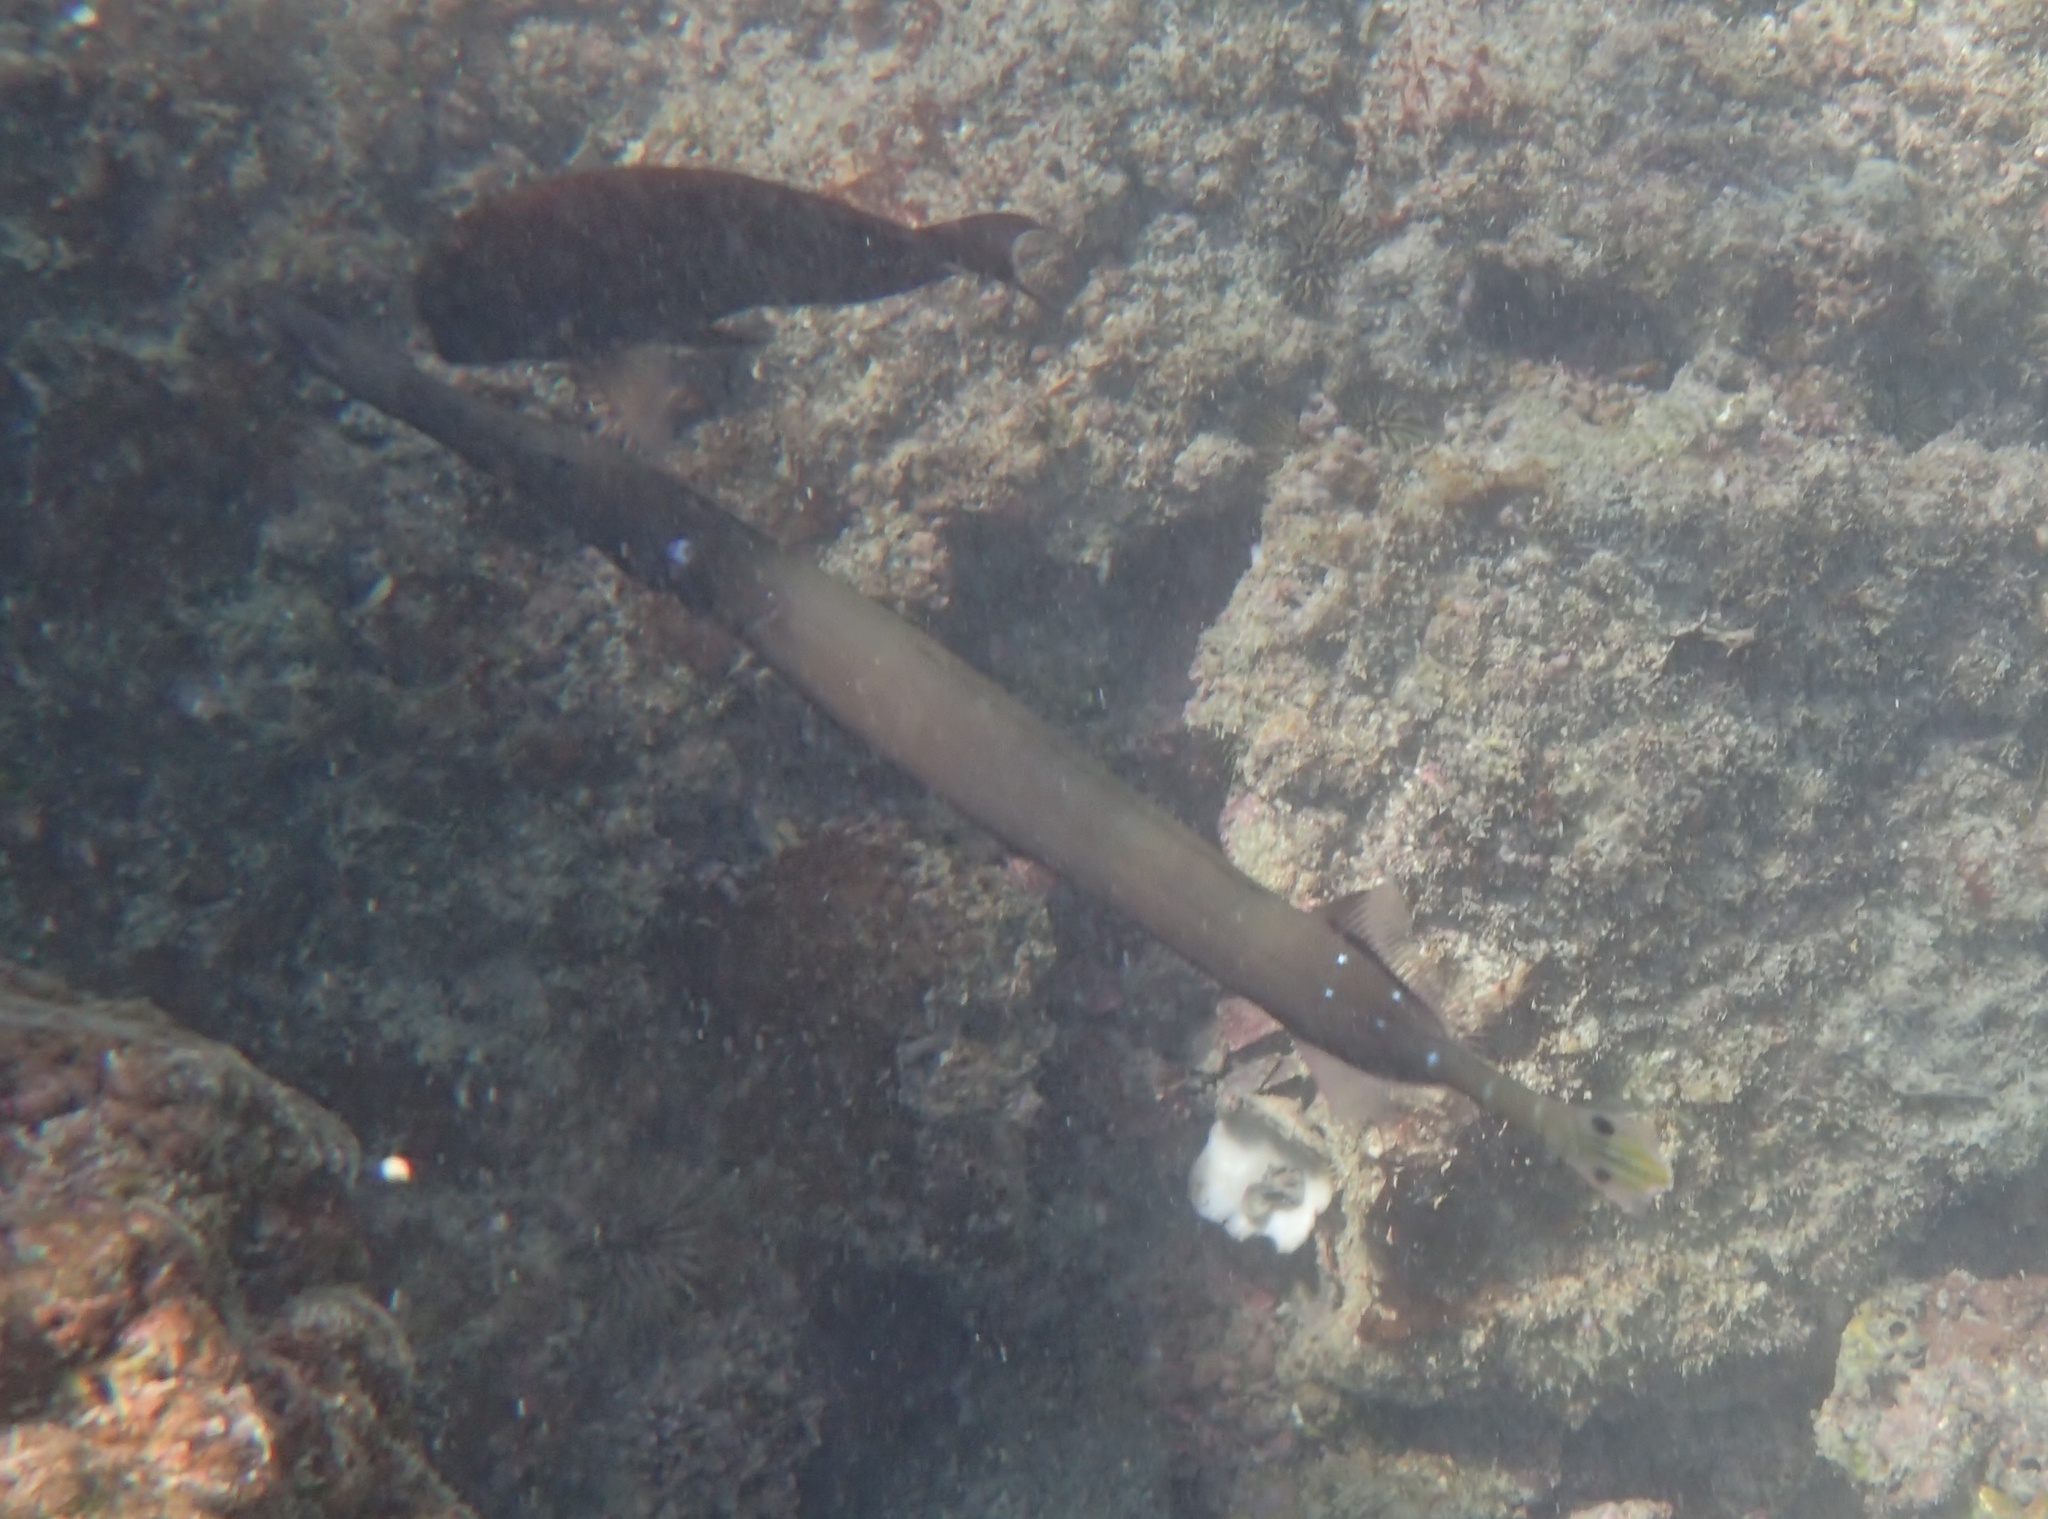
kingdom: Animalia
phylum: Chordata
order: Syngnathiformes
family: Aulostomidae
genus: Aulostomus
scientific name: Aulostomus chinensis
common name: Chinese trumpetfish
